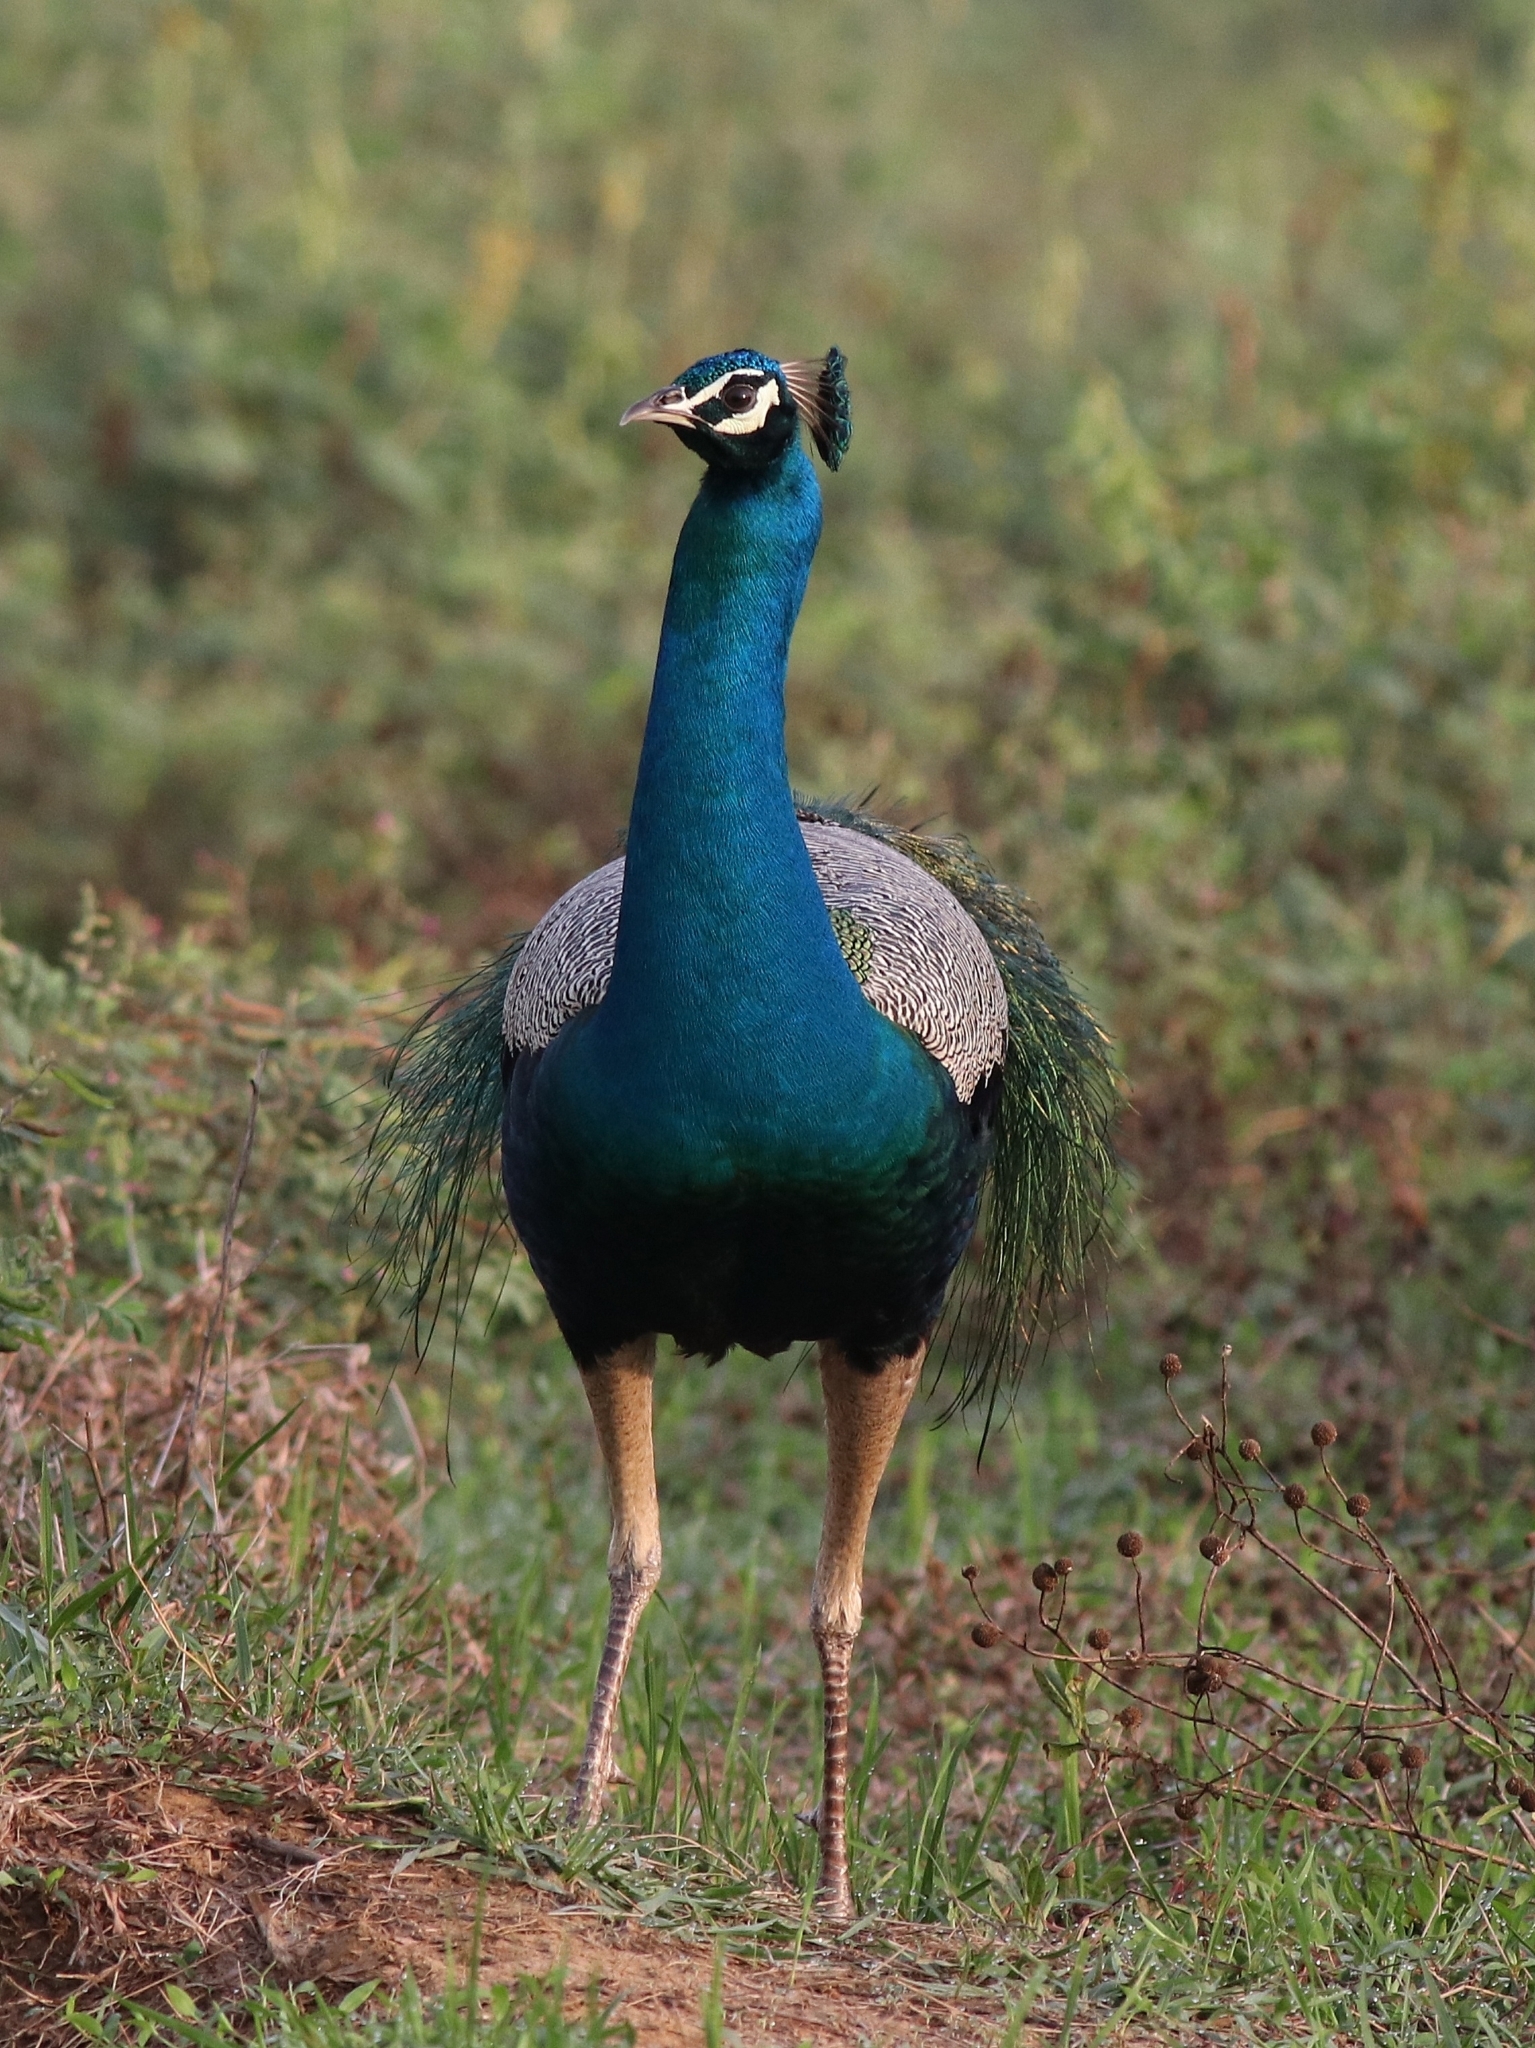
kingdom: Animalia
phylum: Chordata
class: Aves
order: Galliformes
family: Phasianidae
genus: Pavo
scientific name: Pavo cristatus
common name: Indian peafowl
